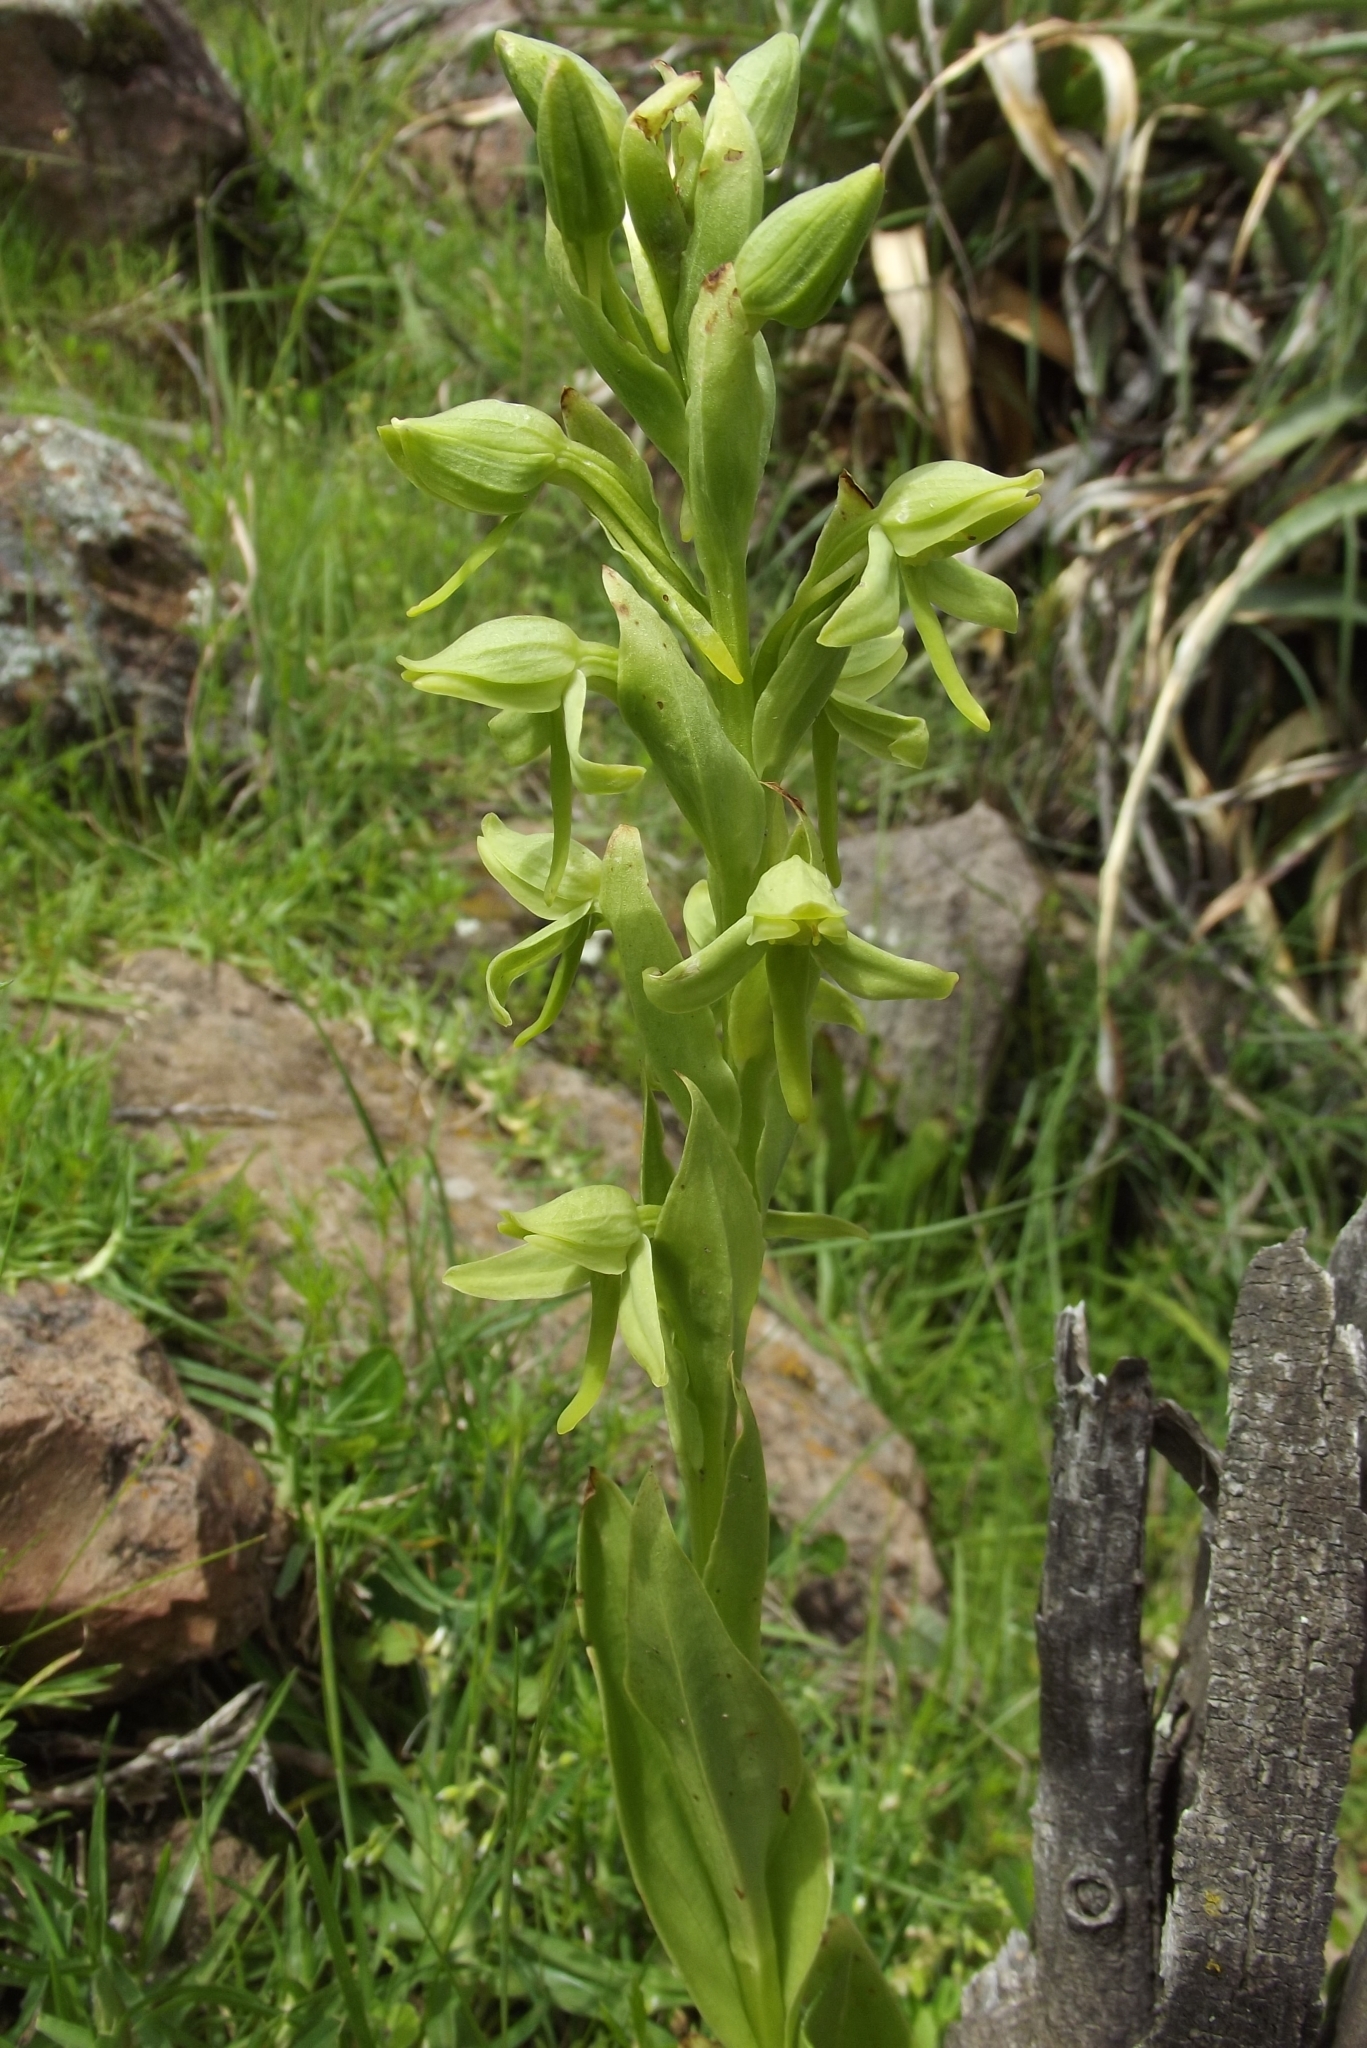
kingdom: Plantae
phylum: Tracheophyta
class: Liliopsida
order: Asparagales
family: Orchidaceae
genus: Habenaria
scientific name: Habenaria floribunda
